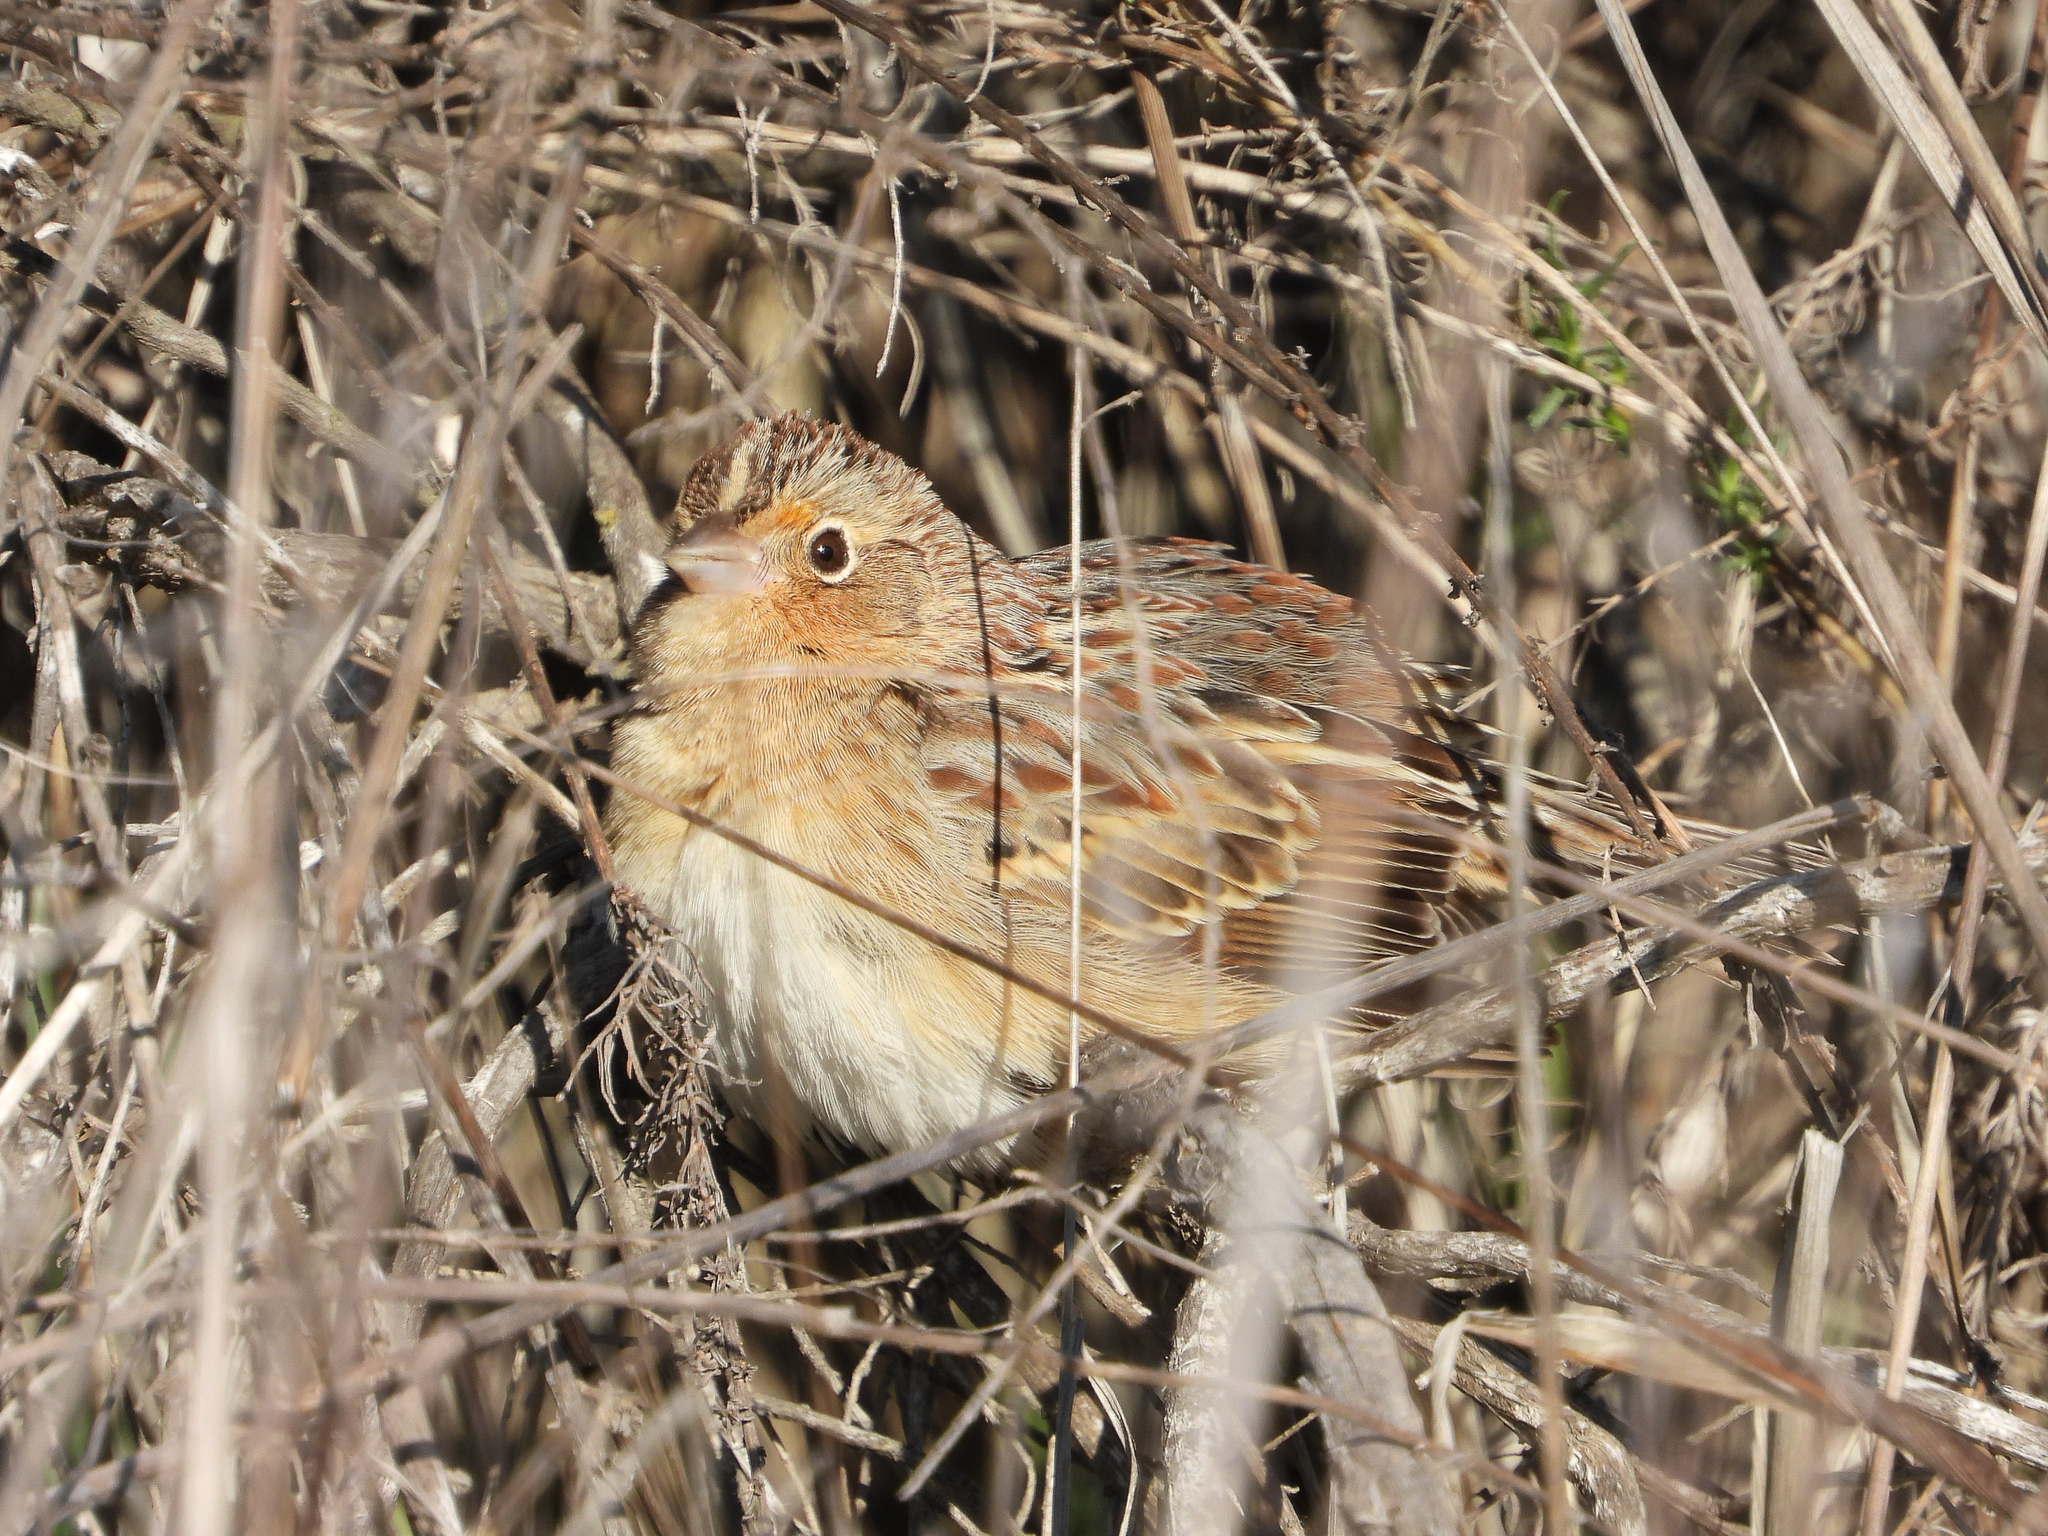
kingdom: Animalia
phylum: Chordata
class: Aves
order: Passeriformes
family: Passerellidae
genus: Ammodramus
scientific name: Ammodramus savannarum
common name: Grasshopper sparrow
